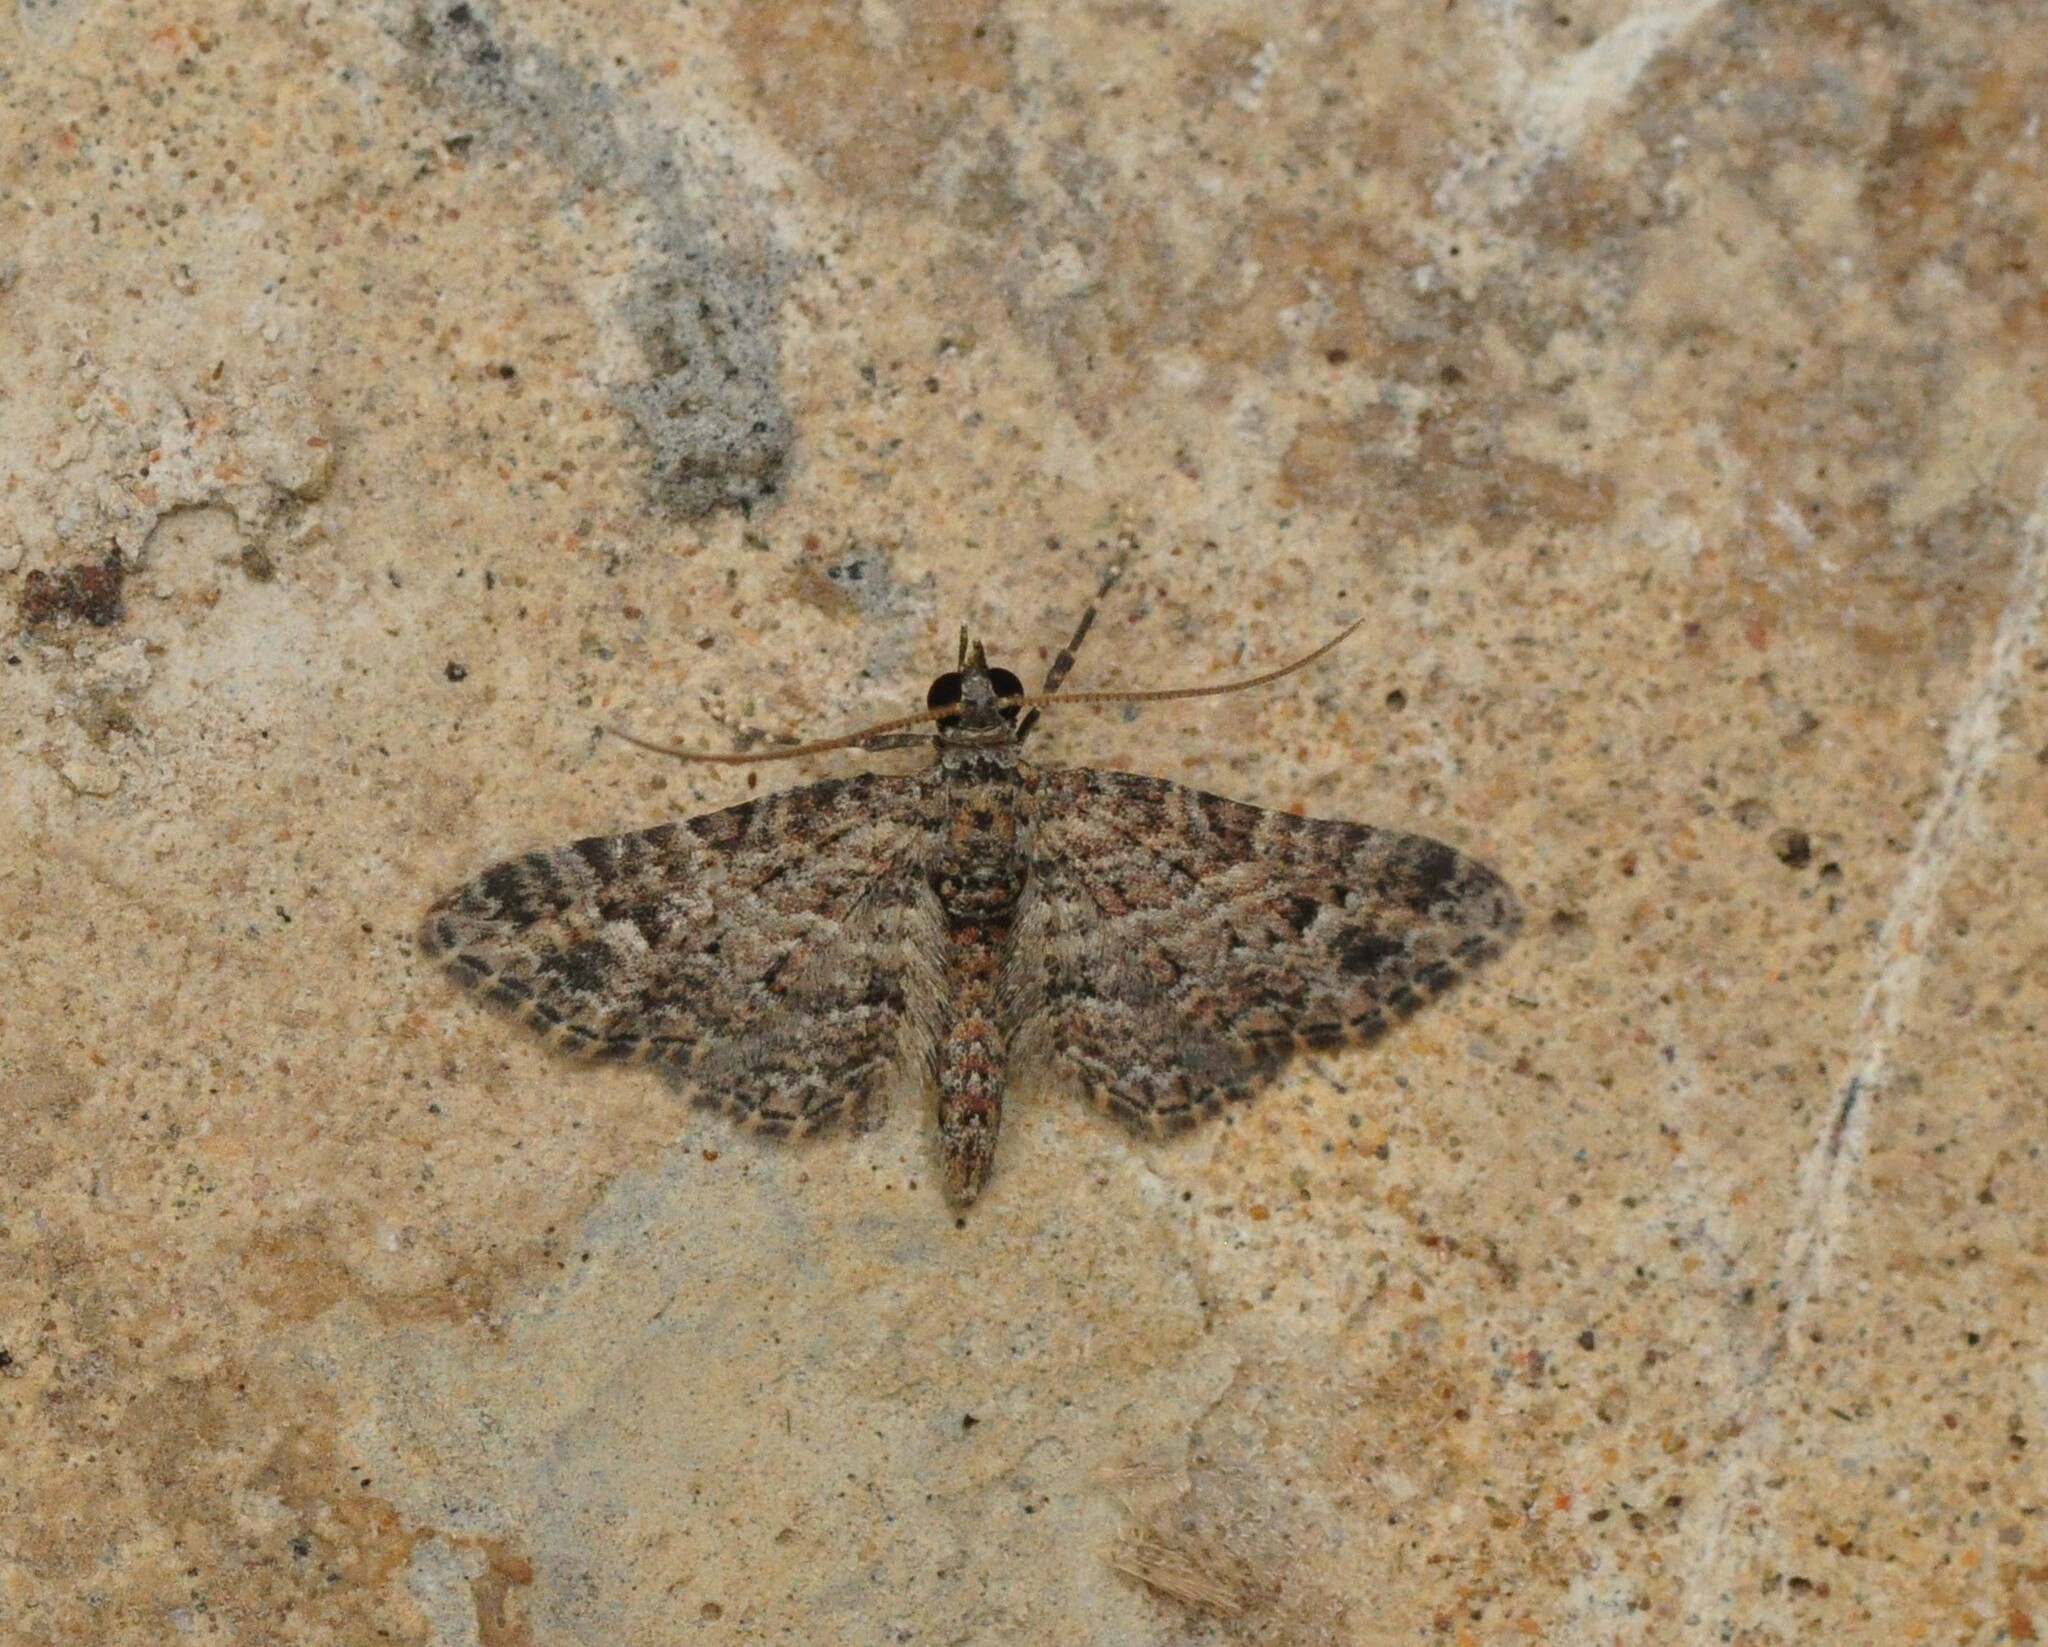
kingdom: Animalia
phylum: Arthropoda
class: Insecta
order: Lepidoptera
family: Geometridae
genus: Gymnoscelis
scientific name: Gymnoscelis rufifasciata
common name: Double-striped pug
